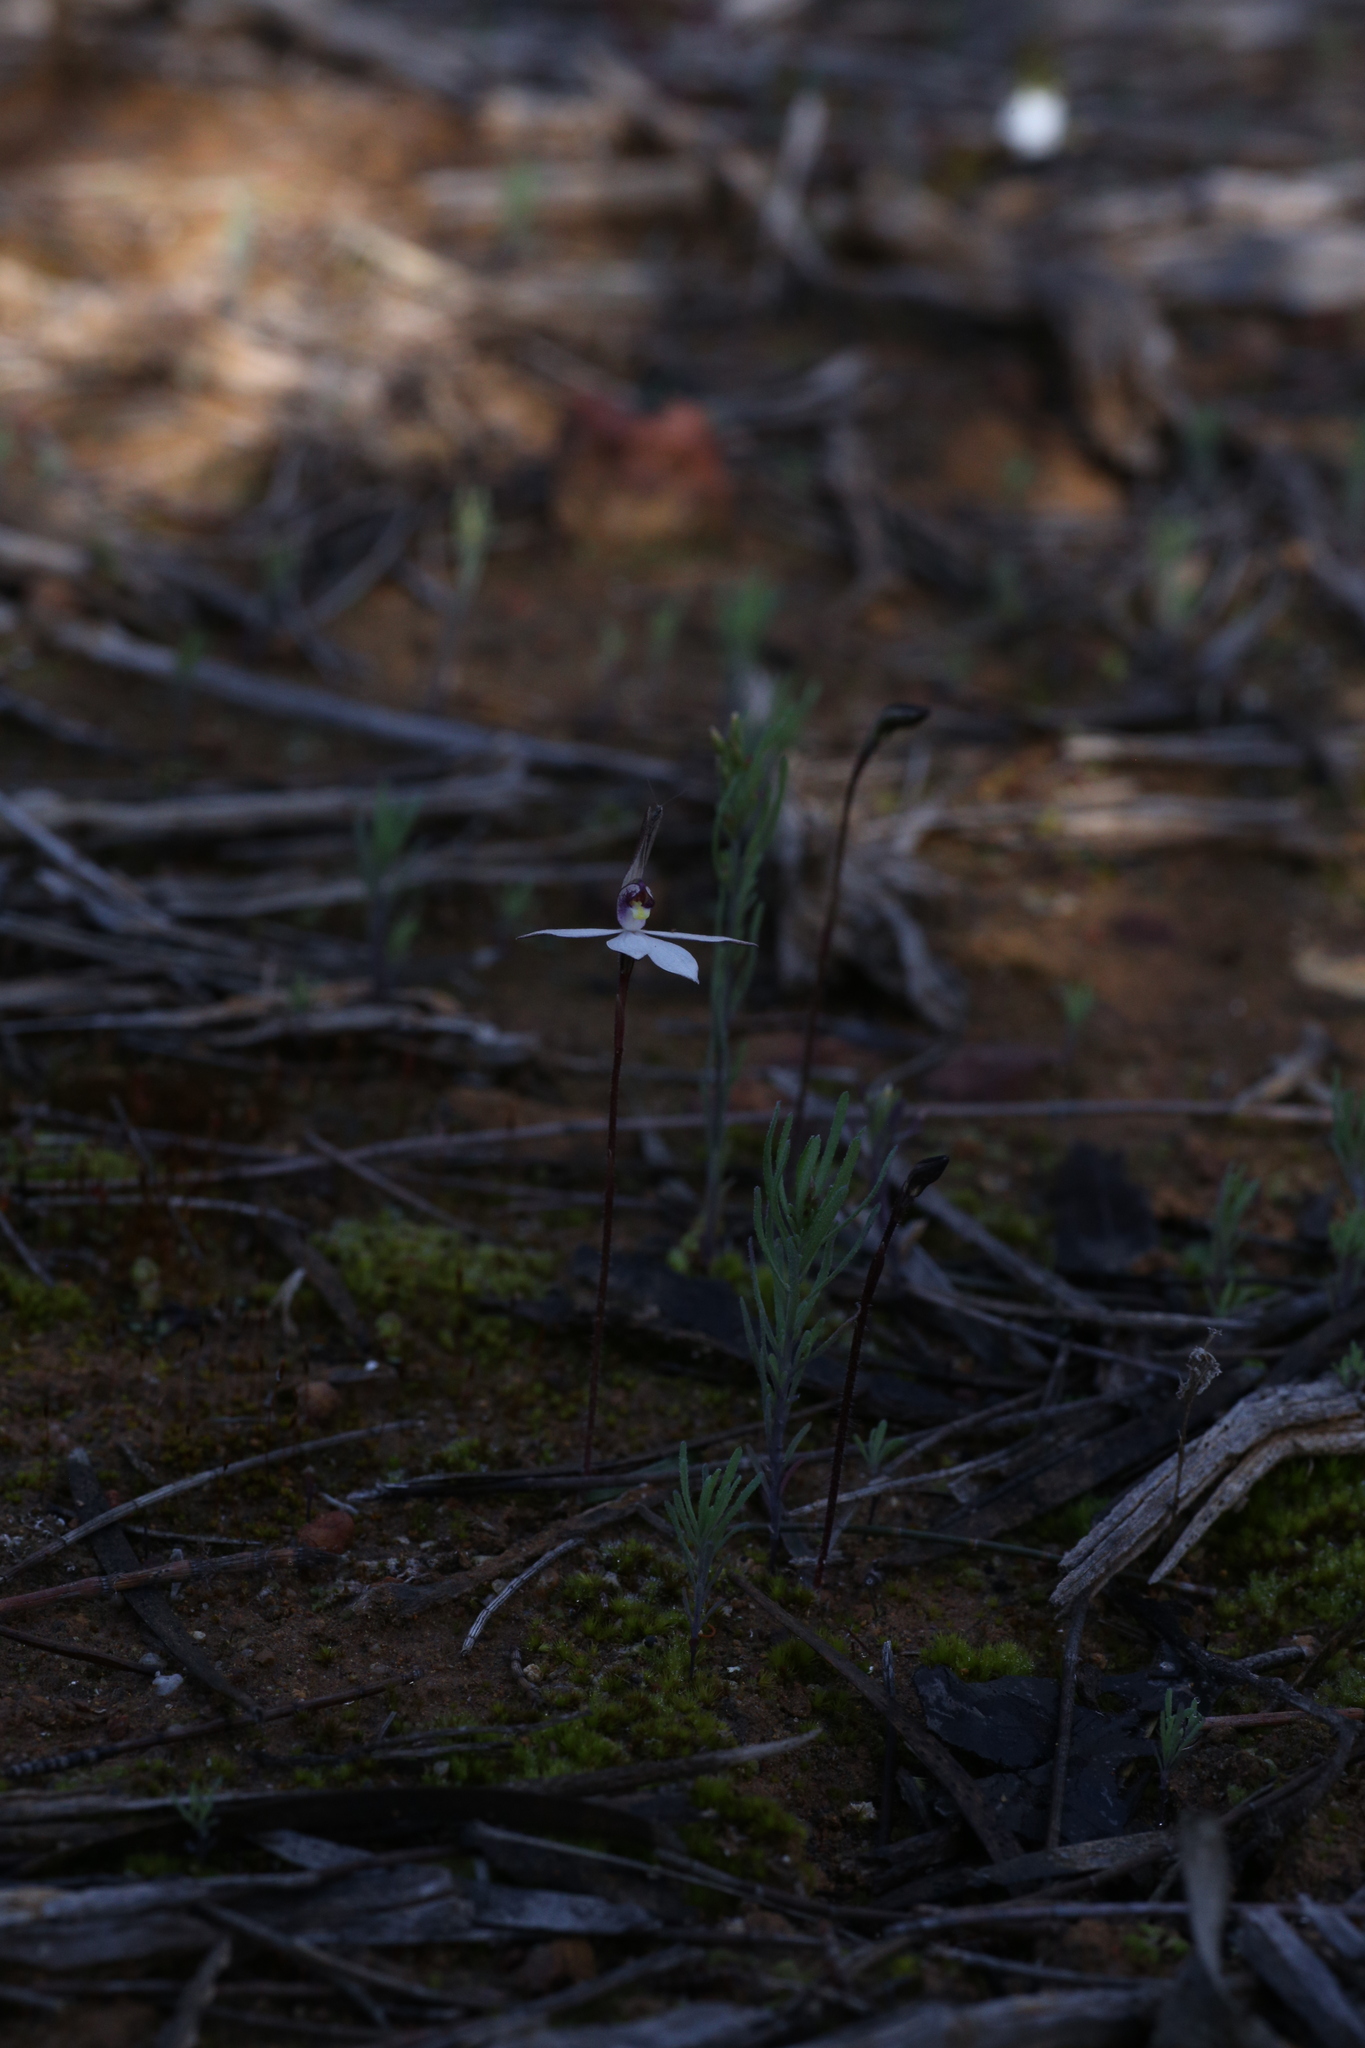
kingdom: Plantae
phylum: Tracheophyta
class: Liliopsida
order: Asparagales
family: Orchidaceae
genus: Caladenia
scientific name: Caladenia saccharata
